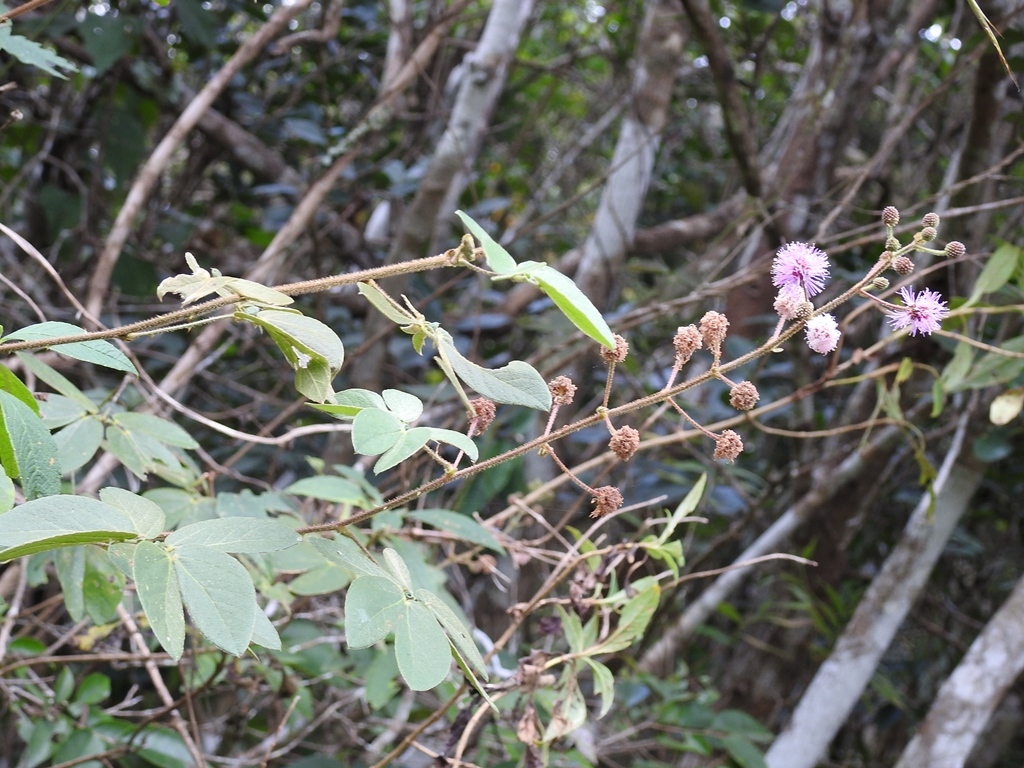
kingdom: Plantae
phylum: Tracheophyta
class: Magnoliopsida
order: Fabales
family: Fabaceae
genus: Mimosa
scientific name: Mimosa albida
